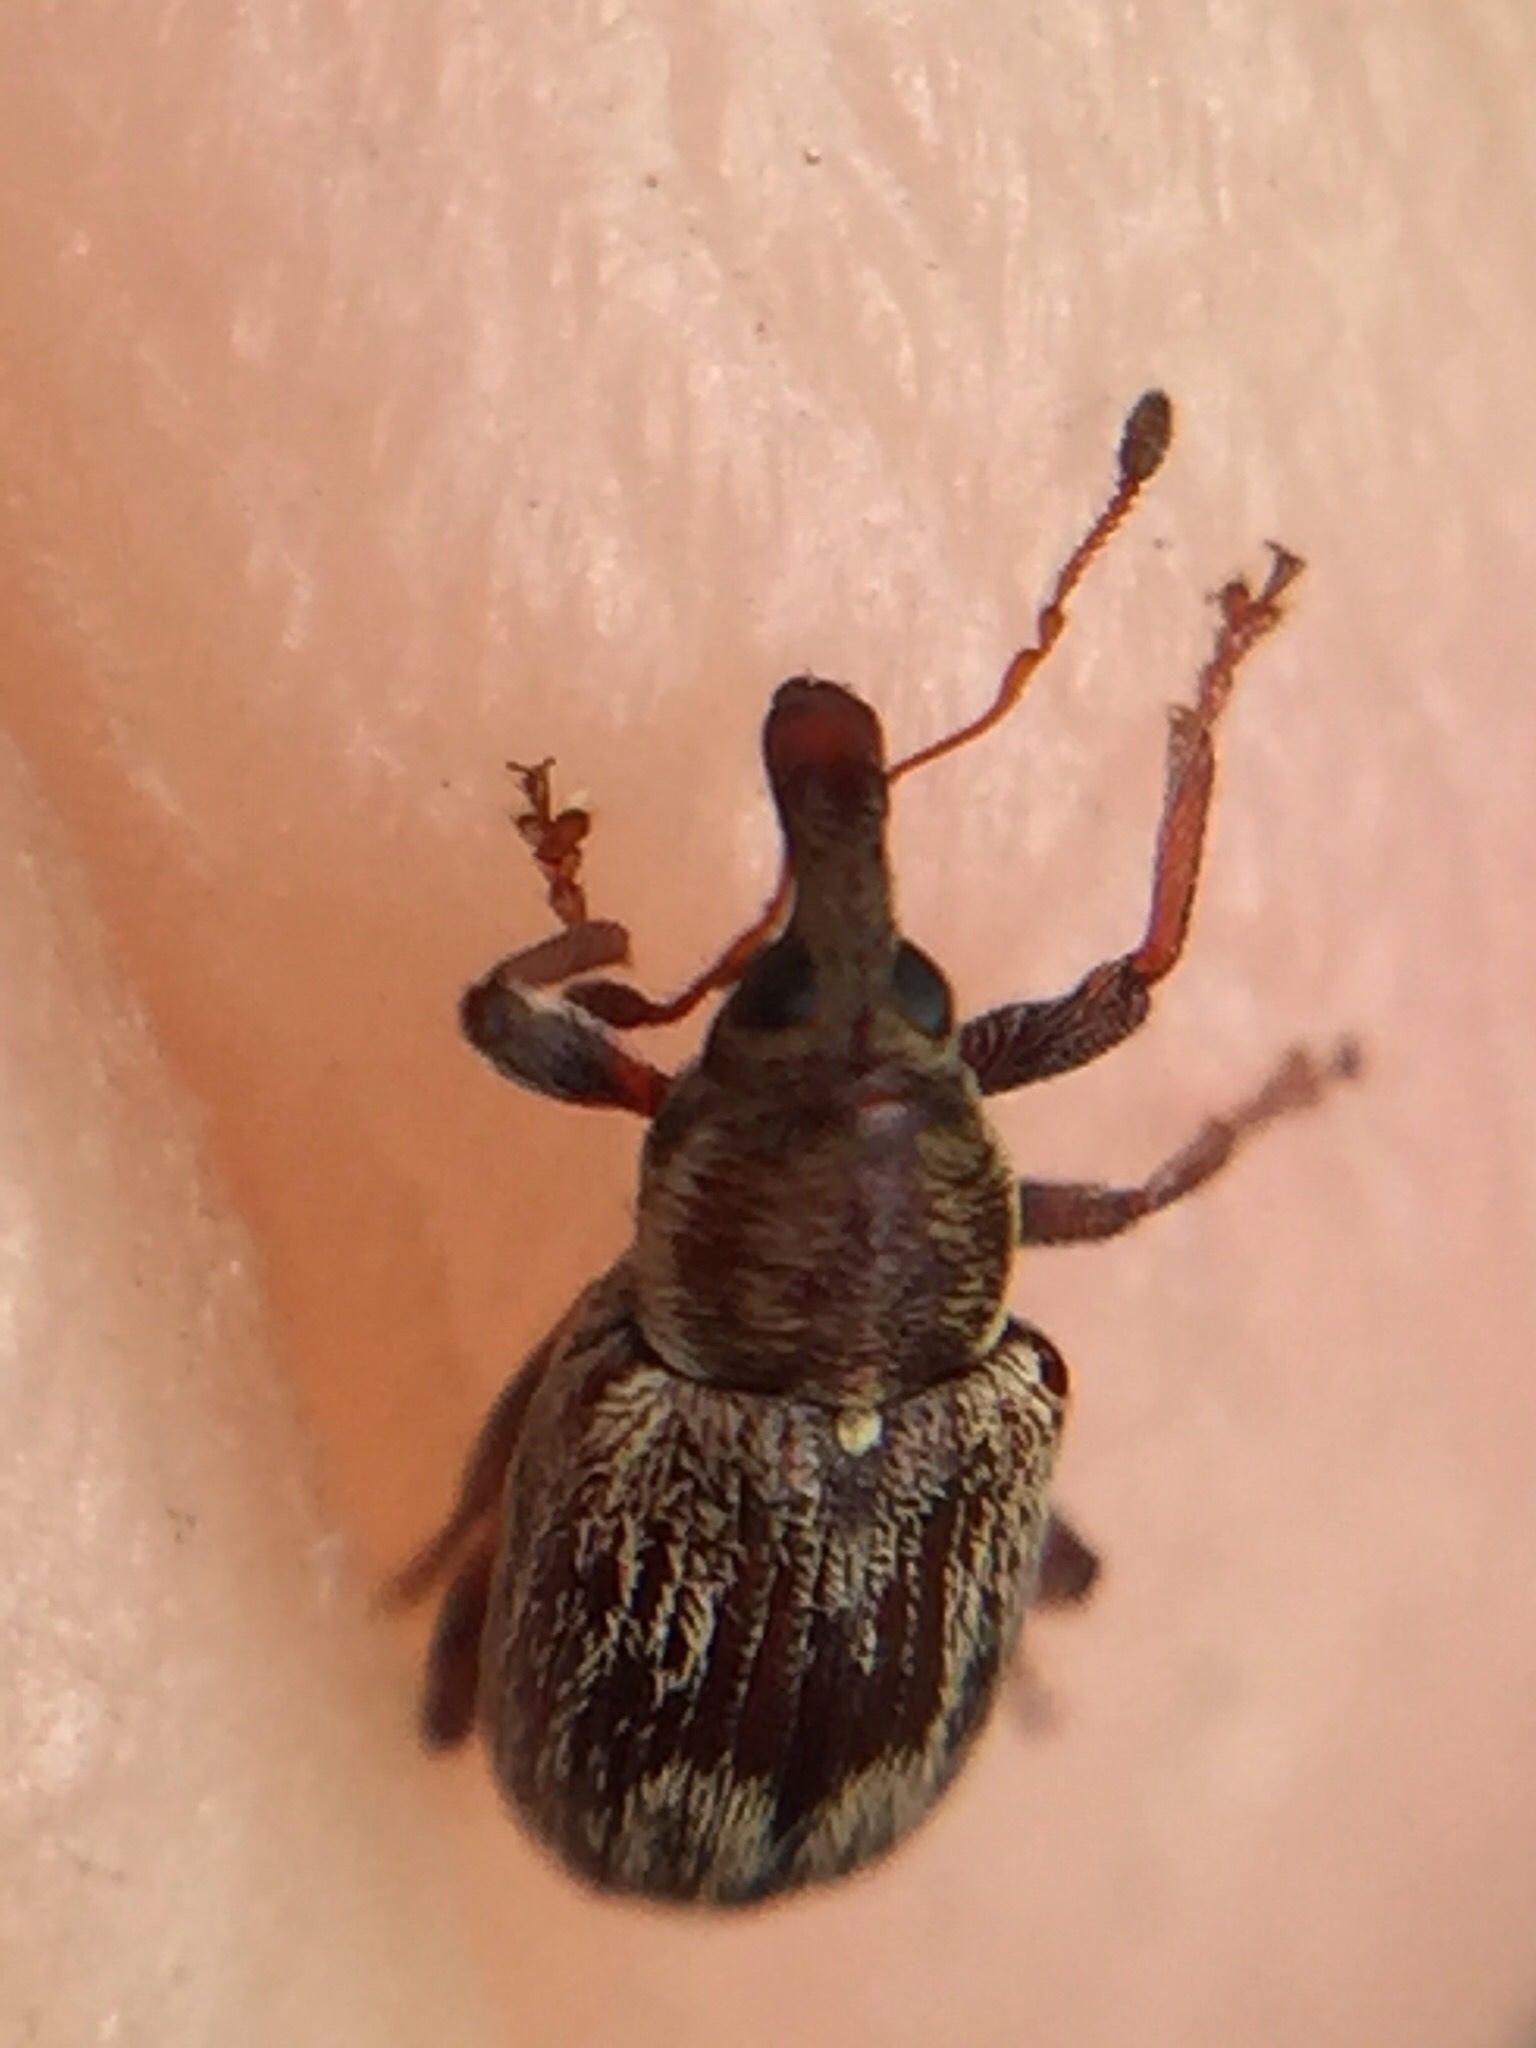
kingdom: Animalia
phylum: Arthropoda
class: Insecta
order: Coleoptera
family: Curculionidae
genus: Neomycta
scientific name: Neomycta rubida
